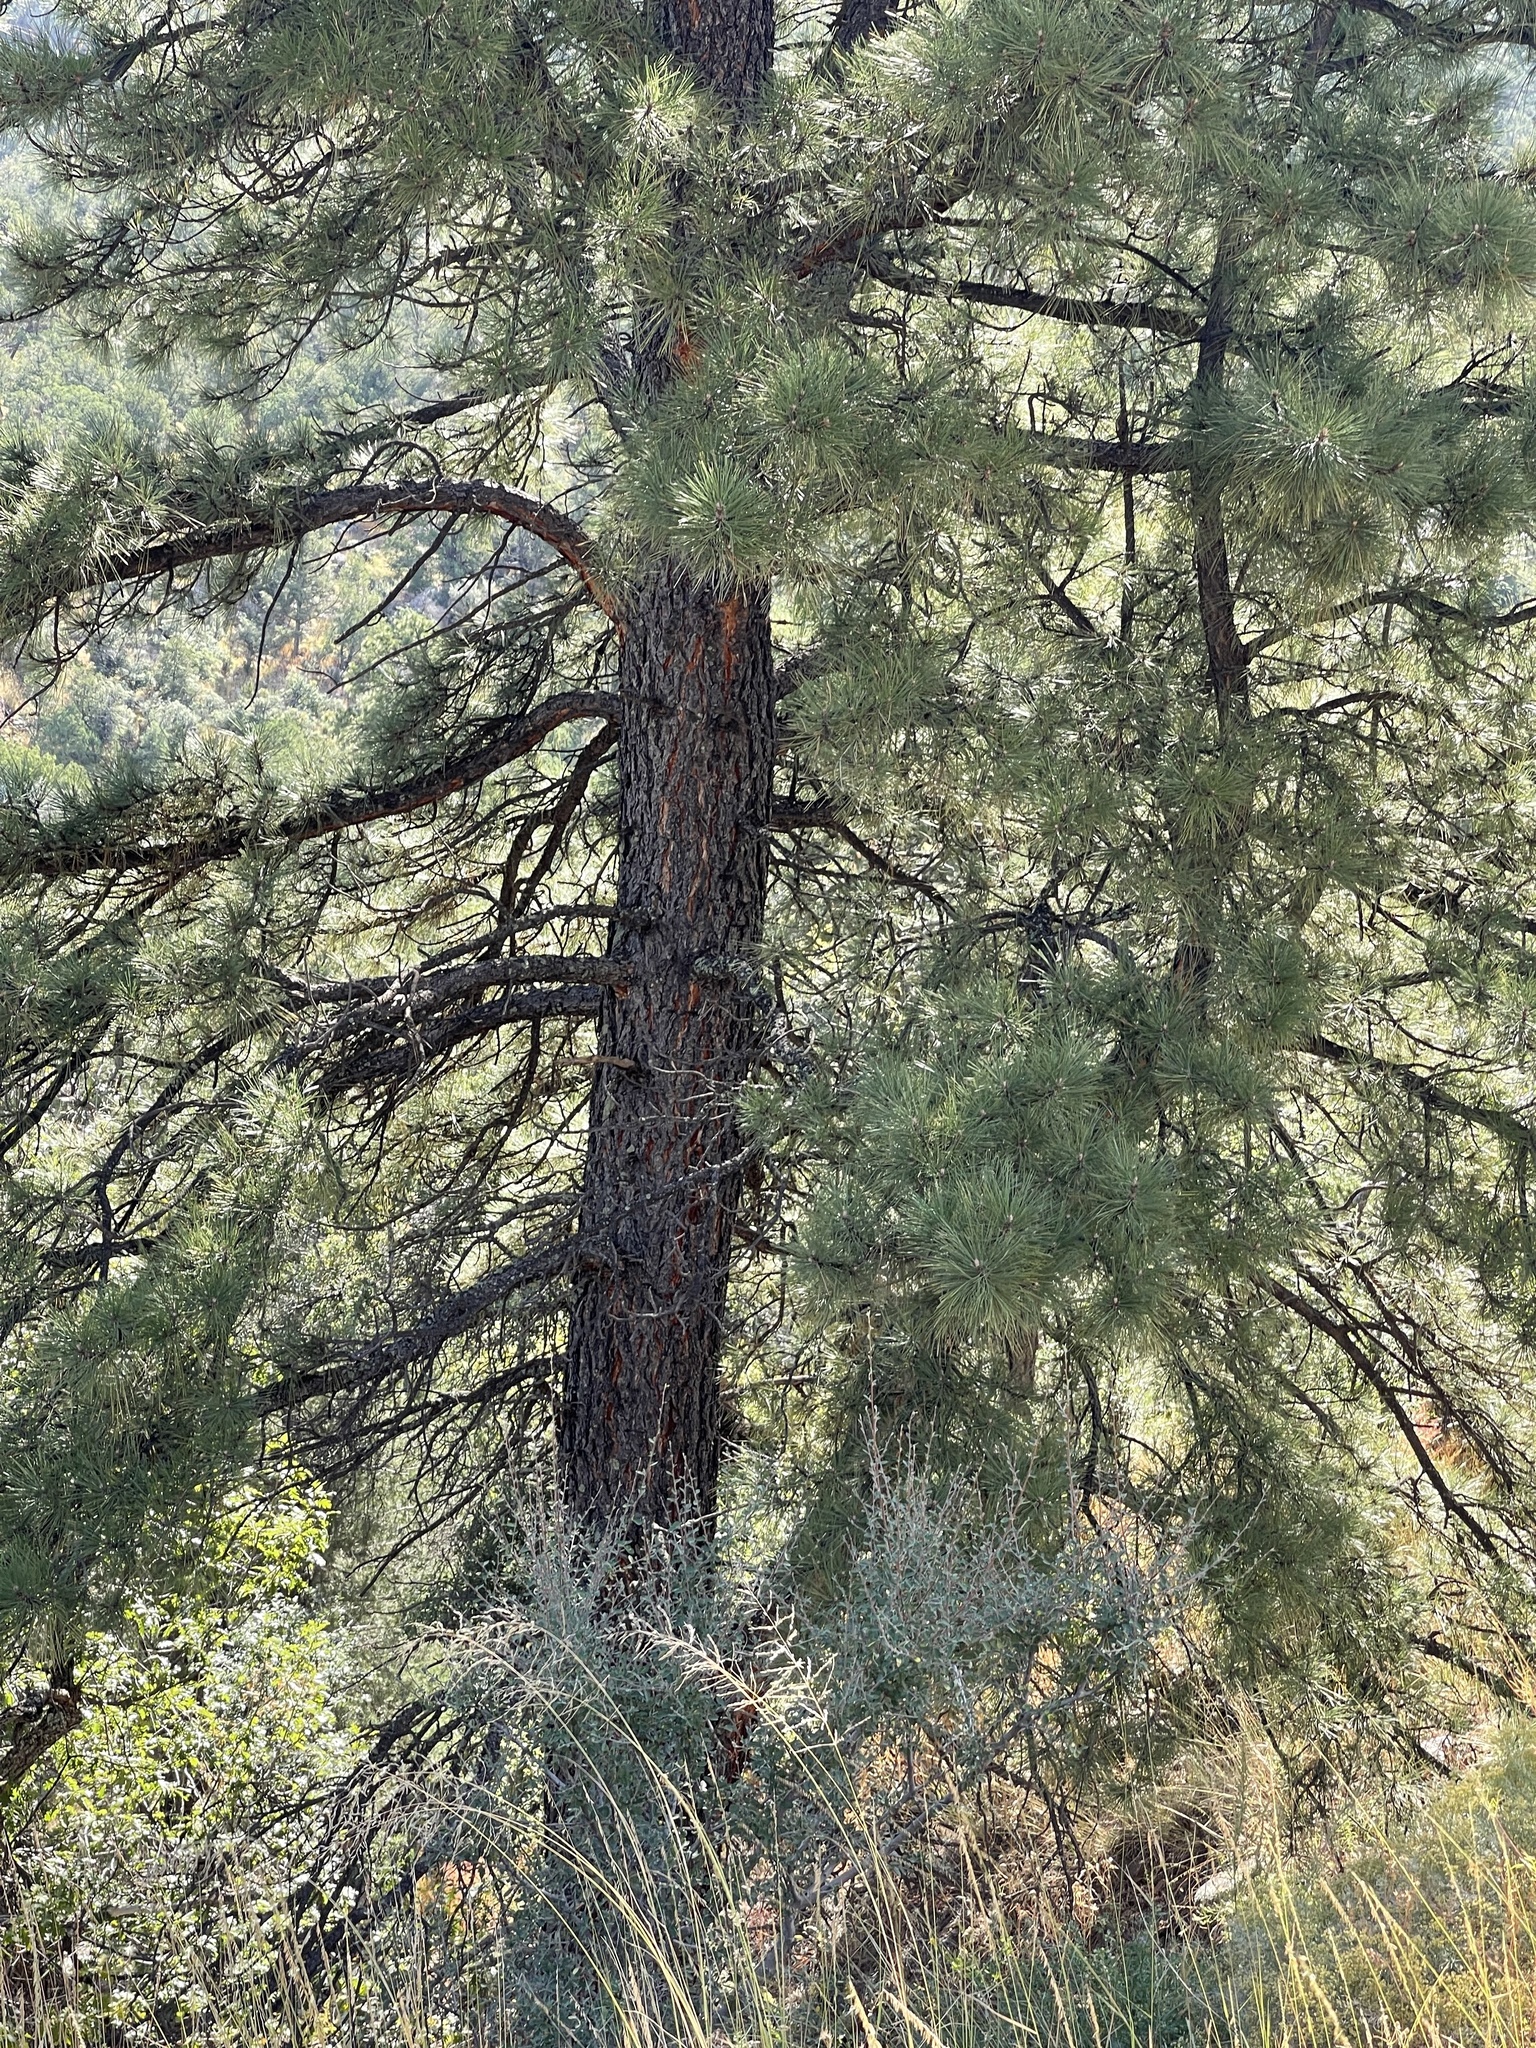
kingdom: Plantae
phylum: Tracheophyta
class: Pinopsida
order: Pinales
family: Pinaceae
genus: Pinus
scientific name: Pinus ponderosa
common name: Western yellow-pine
